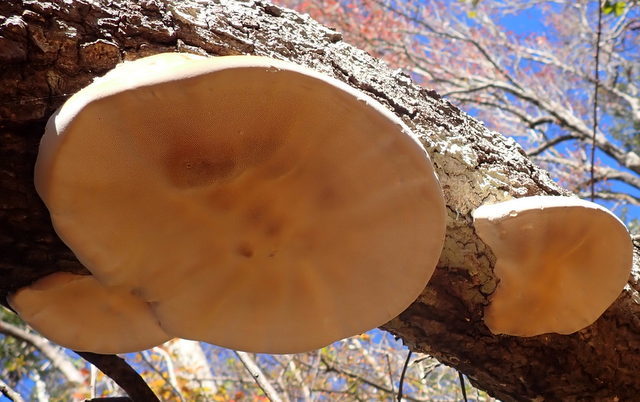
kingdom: Fungi
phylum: Basidiomycota
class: Agaricomycetes
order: Polyporales
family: Polyporaceae
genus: Trametes
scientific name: Trametes lactinea
